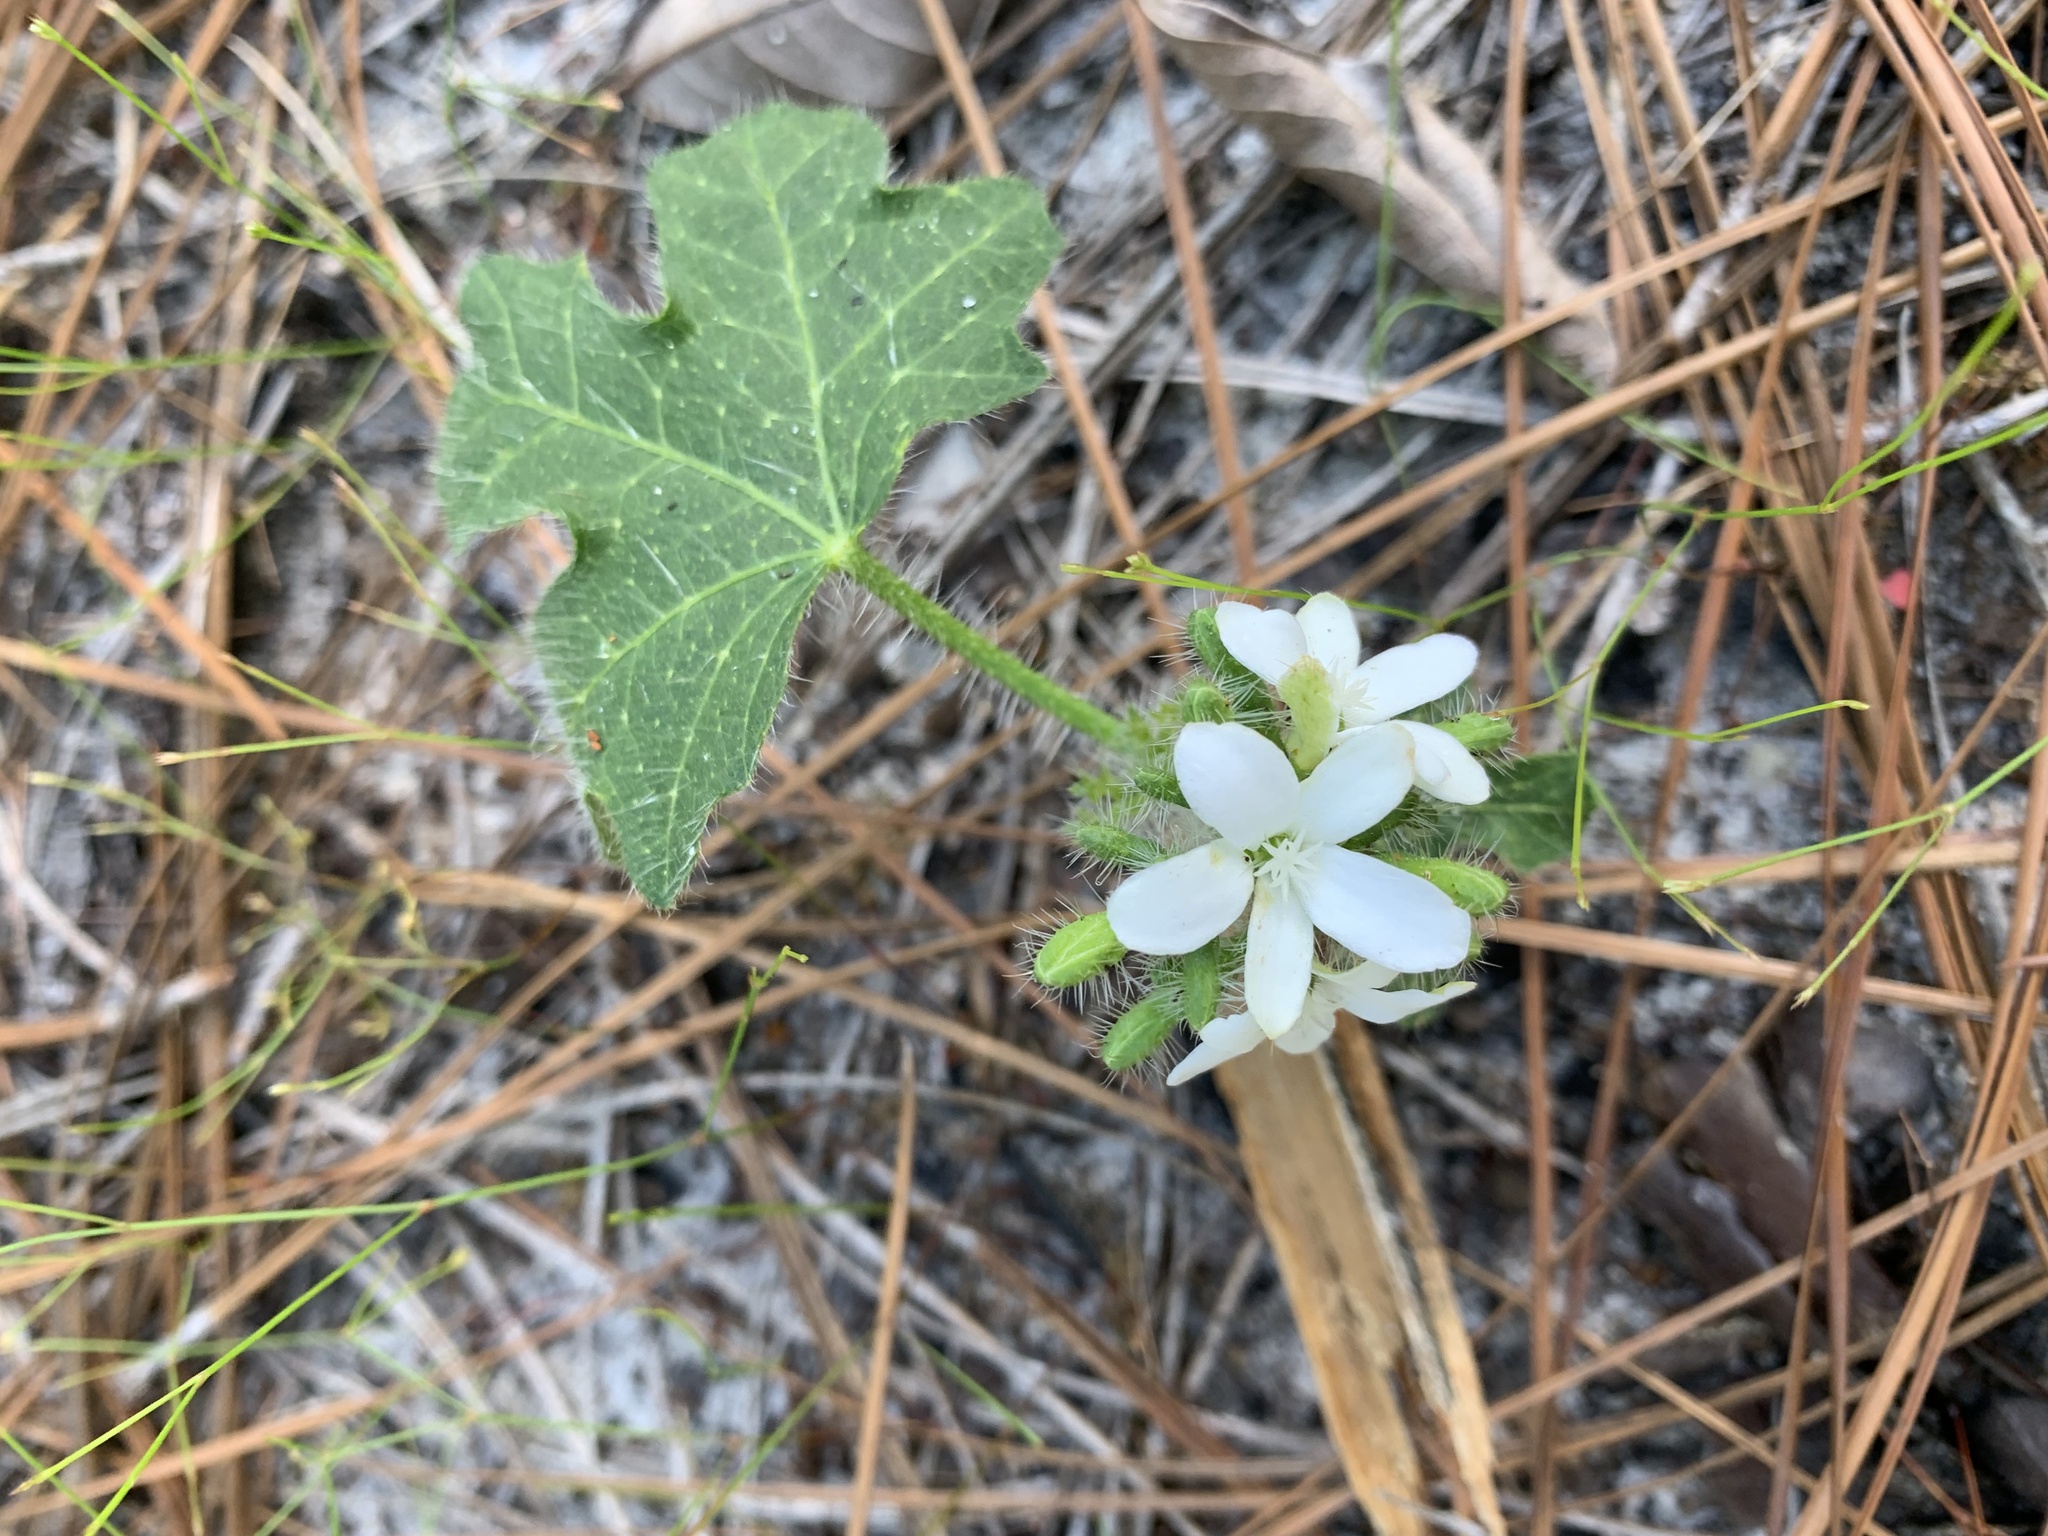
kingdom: Plantae
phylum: Tracheophyta
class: Magnoliopsida
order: Malpighiales
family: Euphorbiaceae
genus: Cnidoscolus
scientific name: Cnidoscolus stimulosus
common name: Bull-nettle
